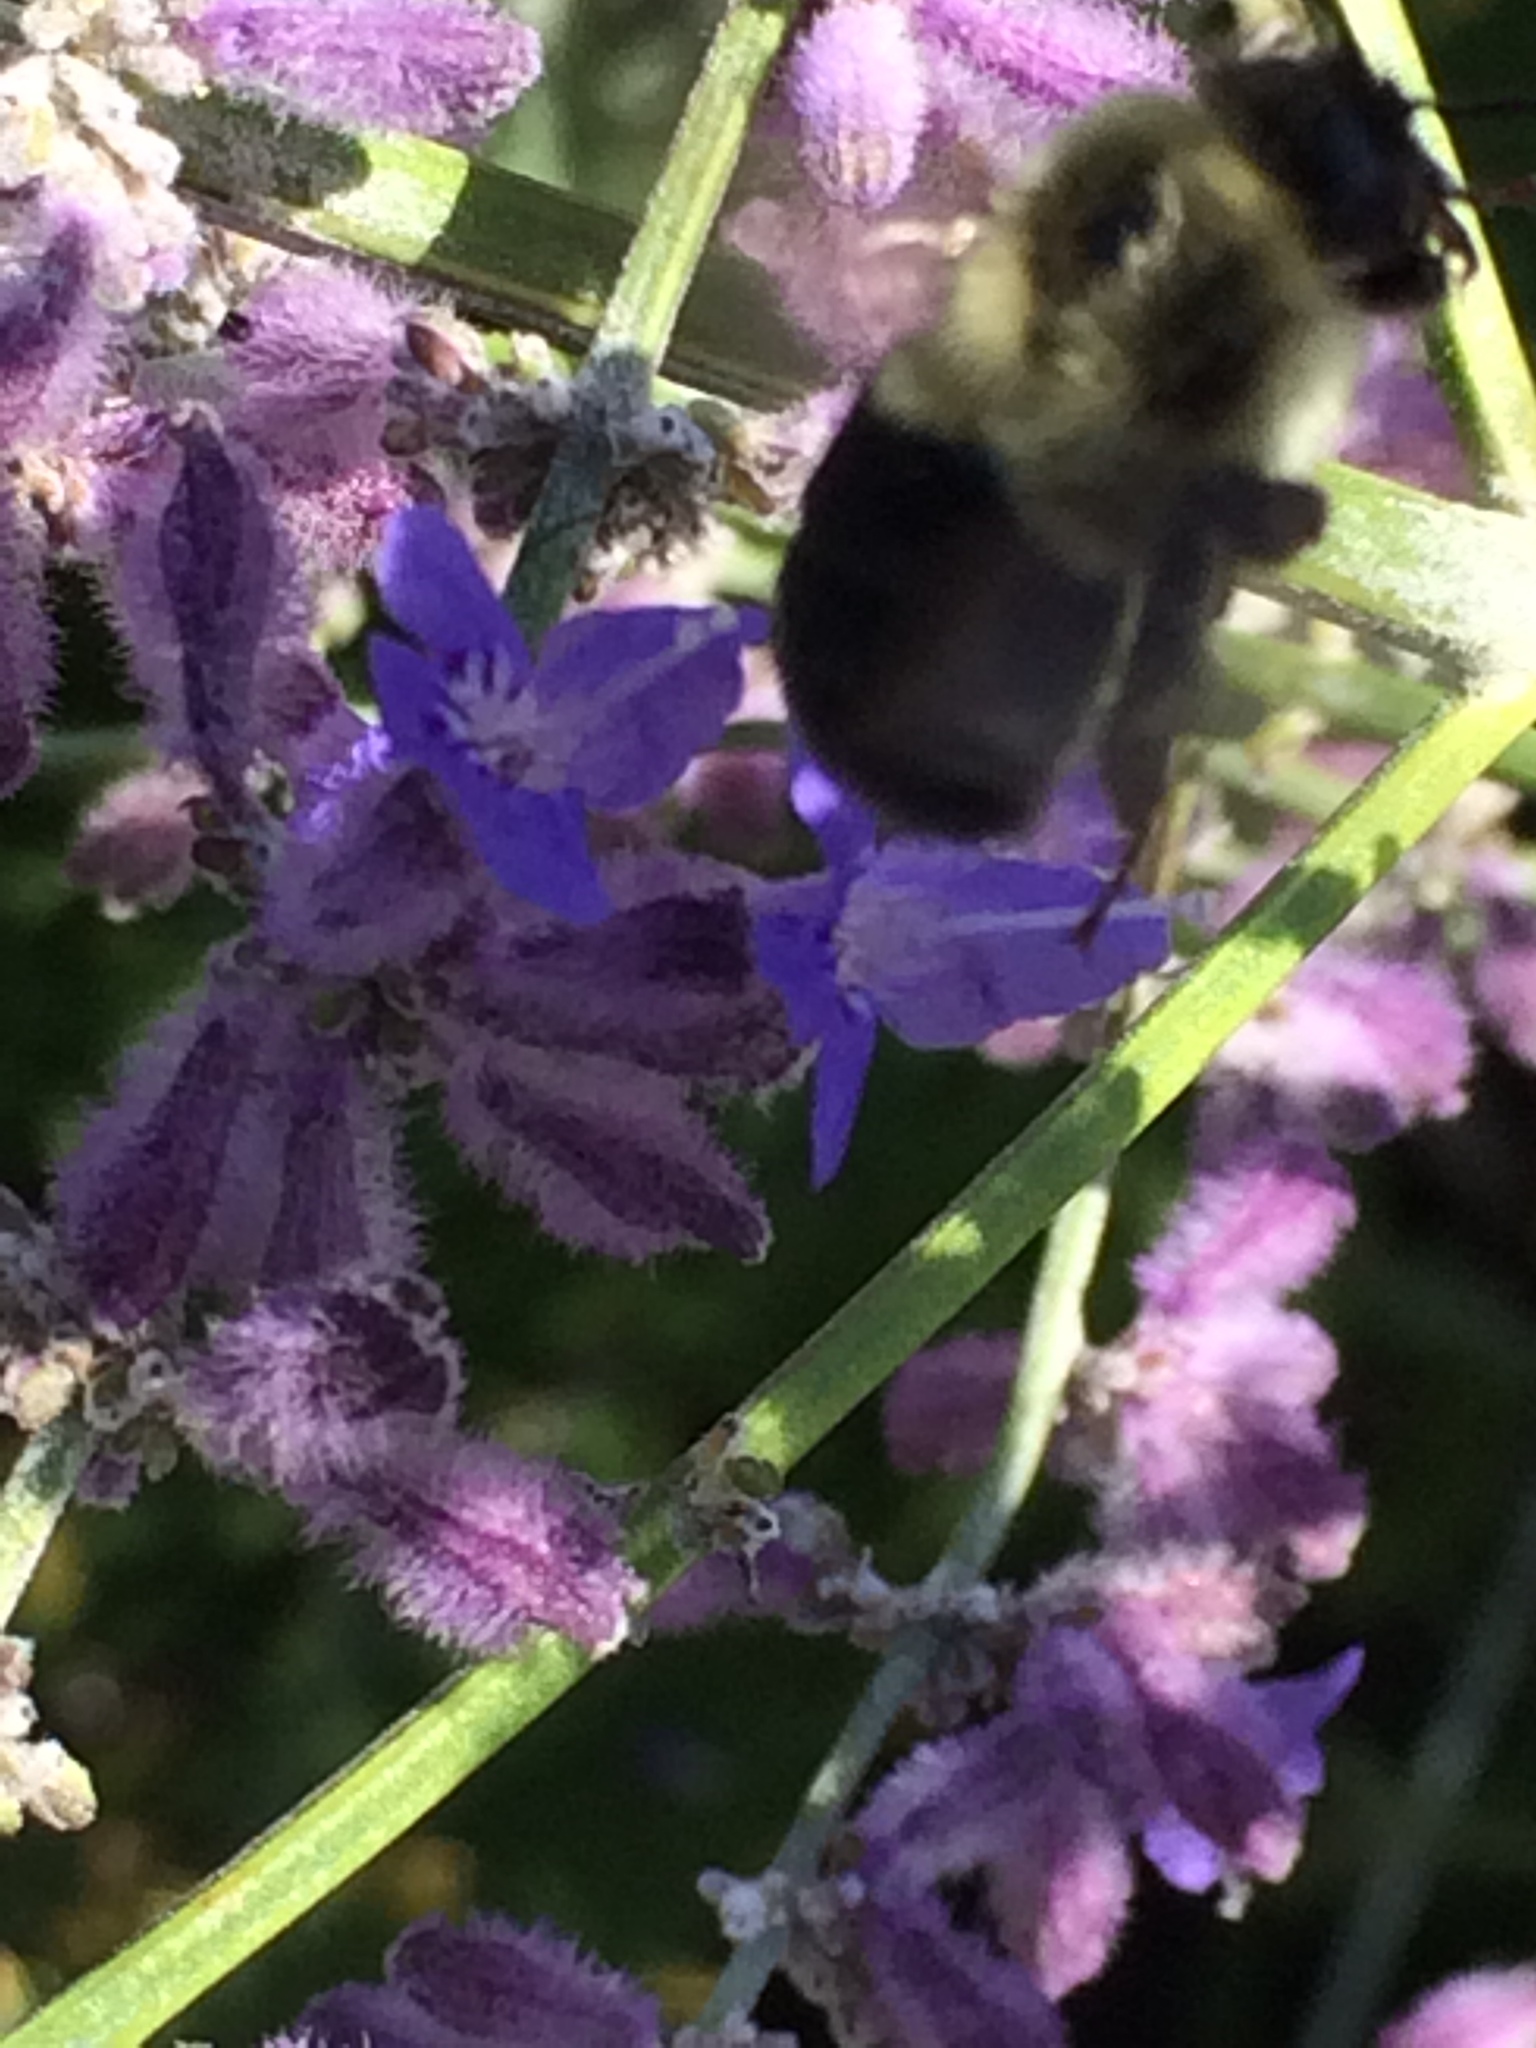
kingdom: Animalia
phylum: Arthropoda
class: Insecta
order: Hymenoptera
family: Apidae
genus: Bombus
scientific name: Bombus impatiens
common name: Common eastern bumble bee
